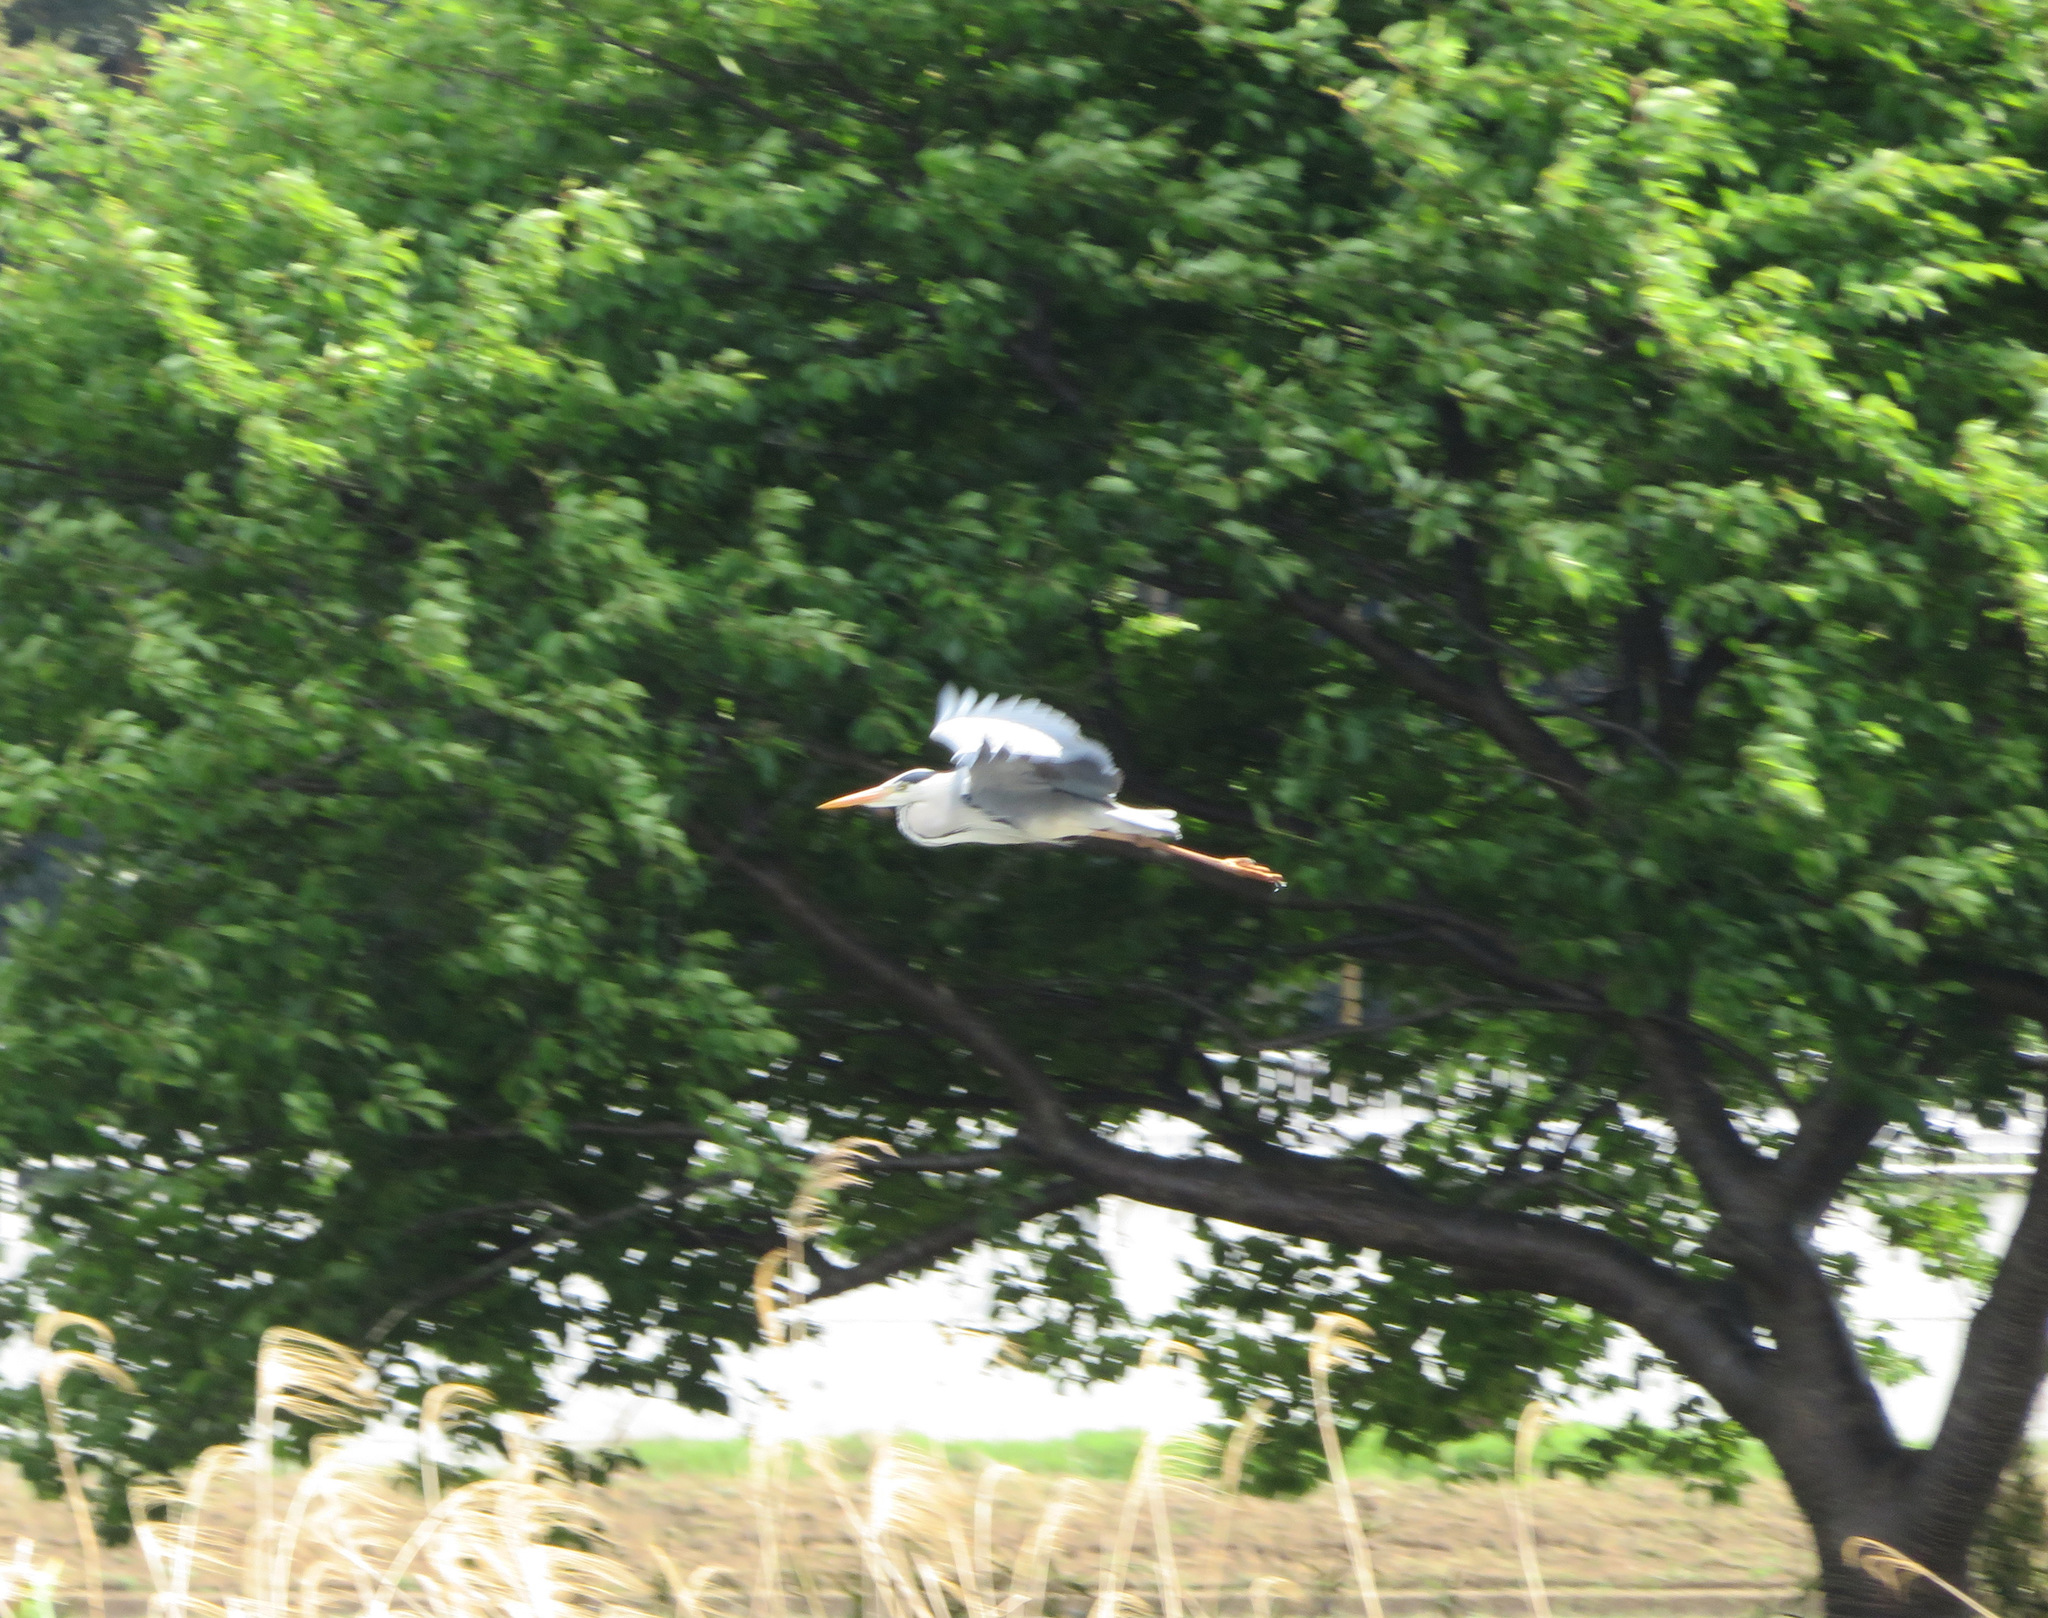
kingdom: Animalia
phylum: Chordata
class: Aves
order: Pelecaniformes
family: Ardeidae
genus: Ardea
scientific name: Ardea cinerea
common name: Grey heron
